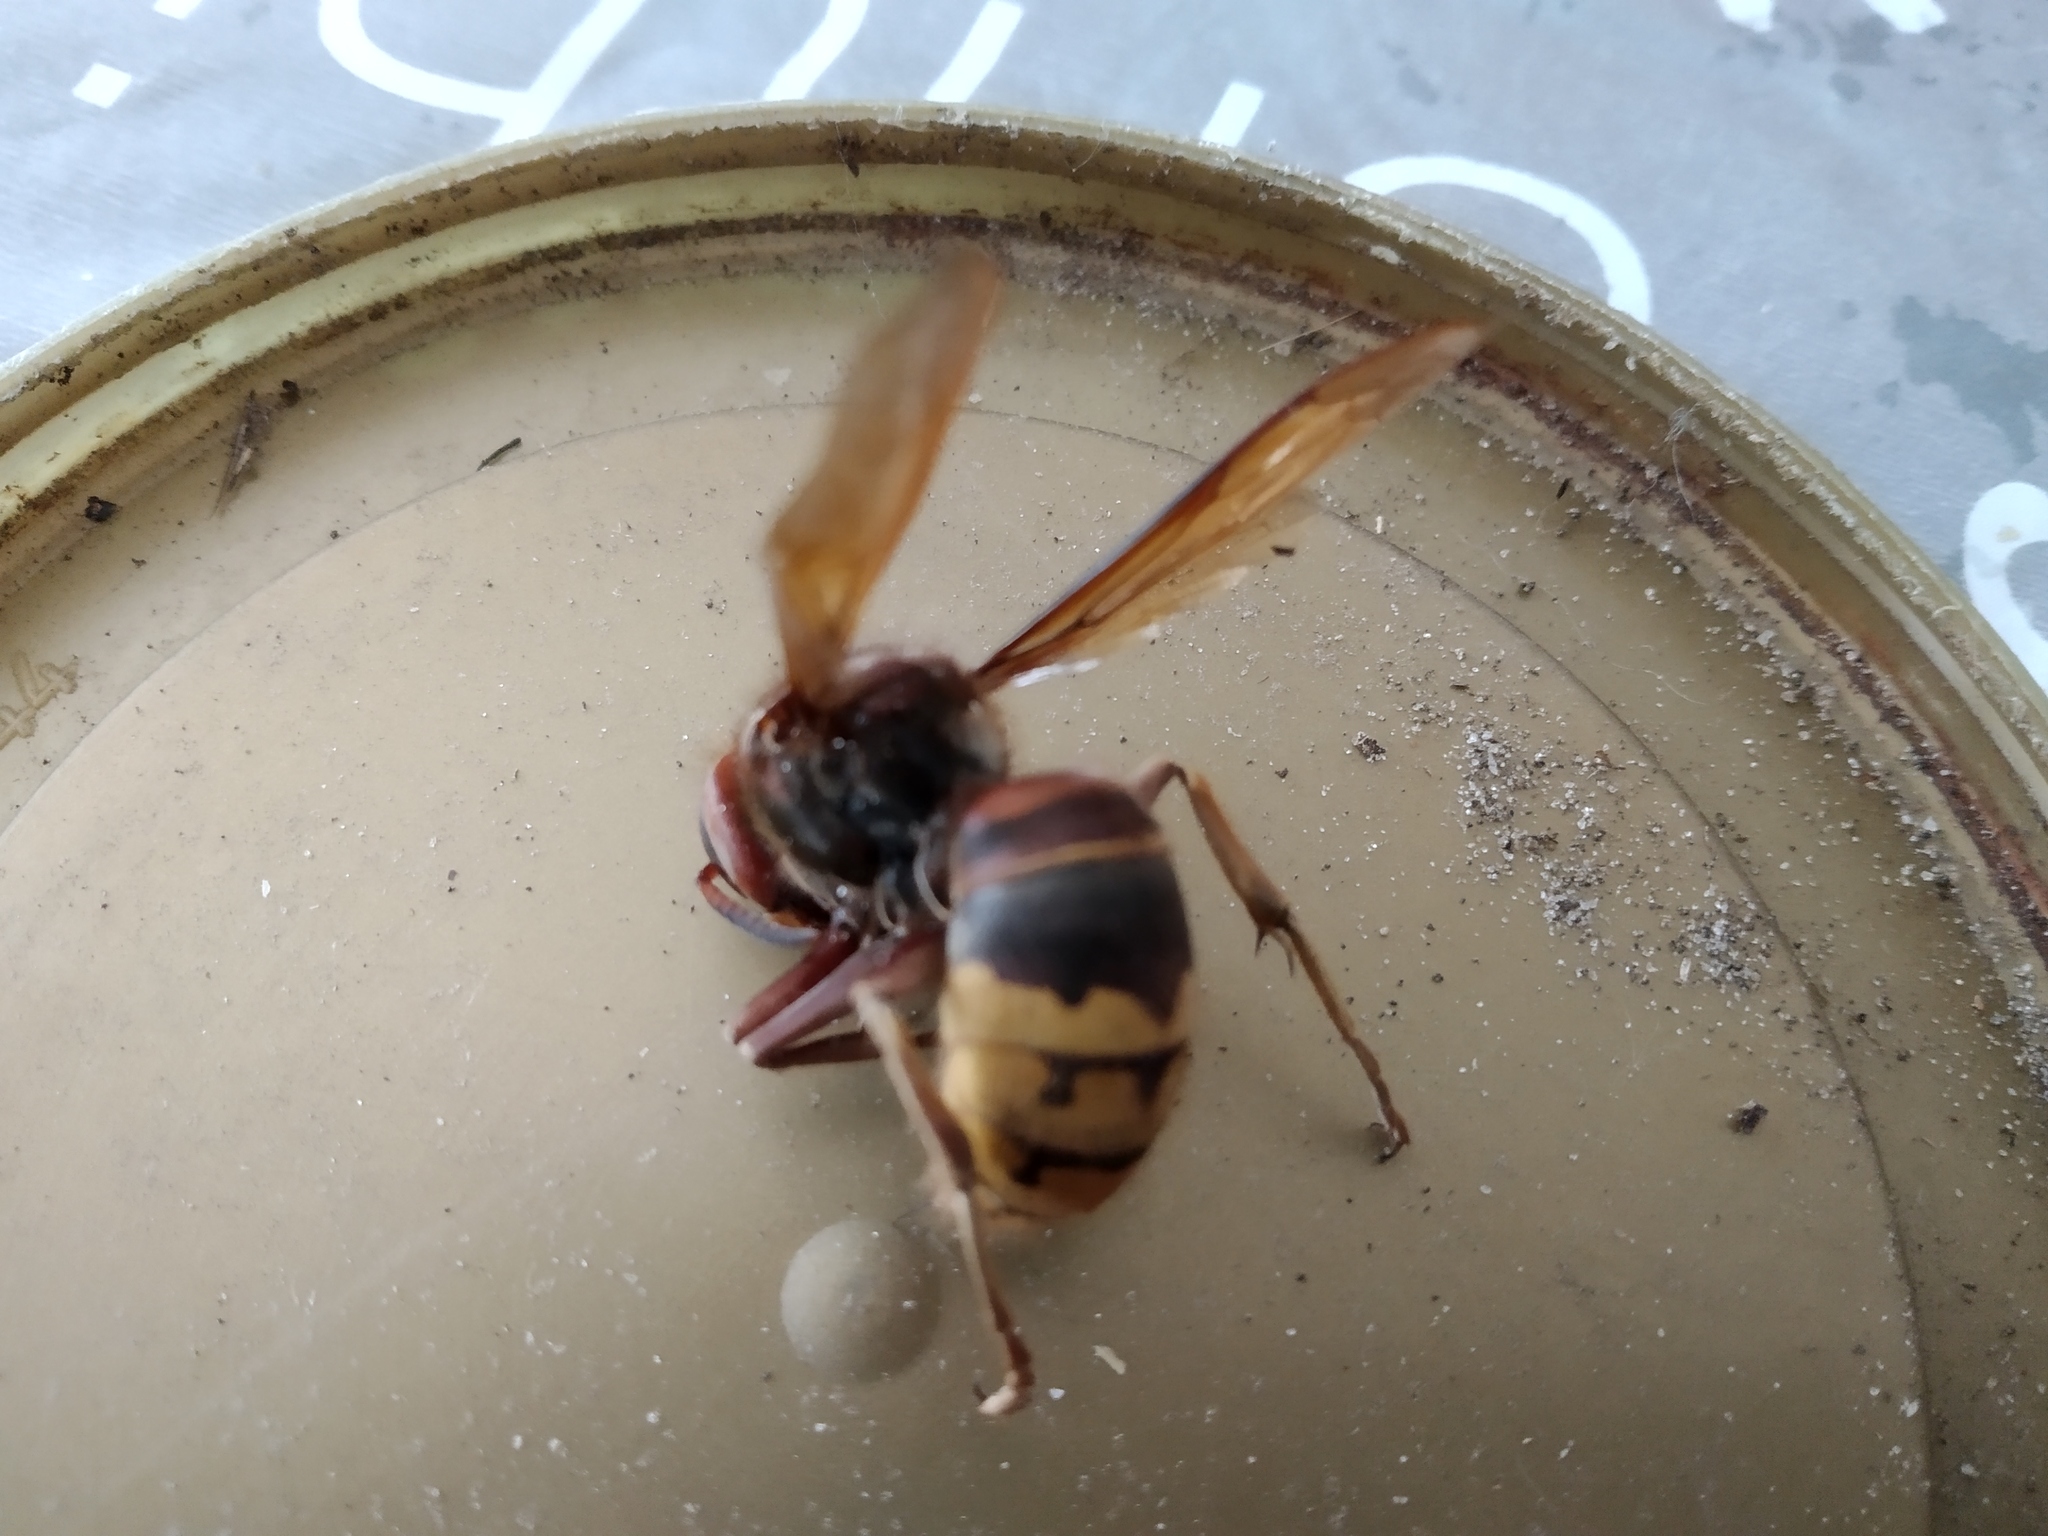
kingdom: Animalia
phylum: Arthropoda
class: Insecta
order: Hymenoptera
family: Vespidae
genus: Vespa
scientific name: Vespa crabro
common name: Hornet
